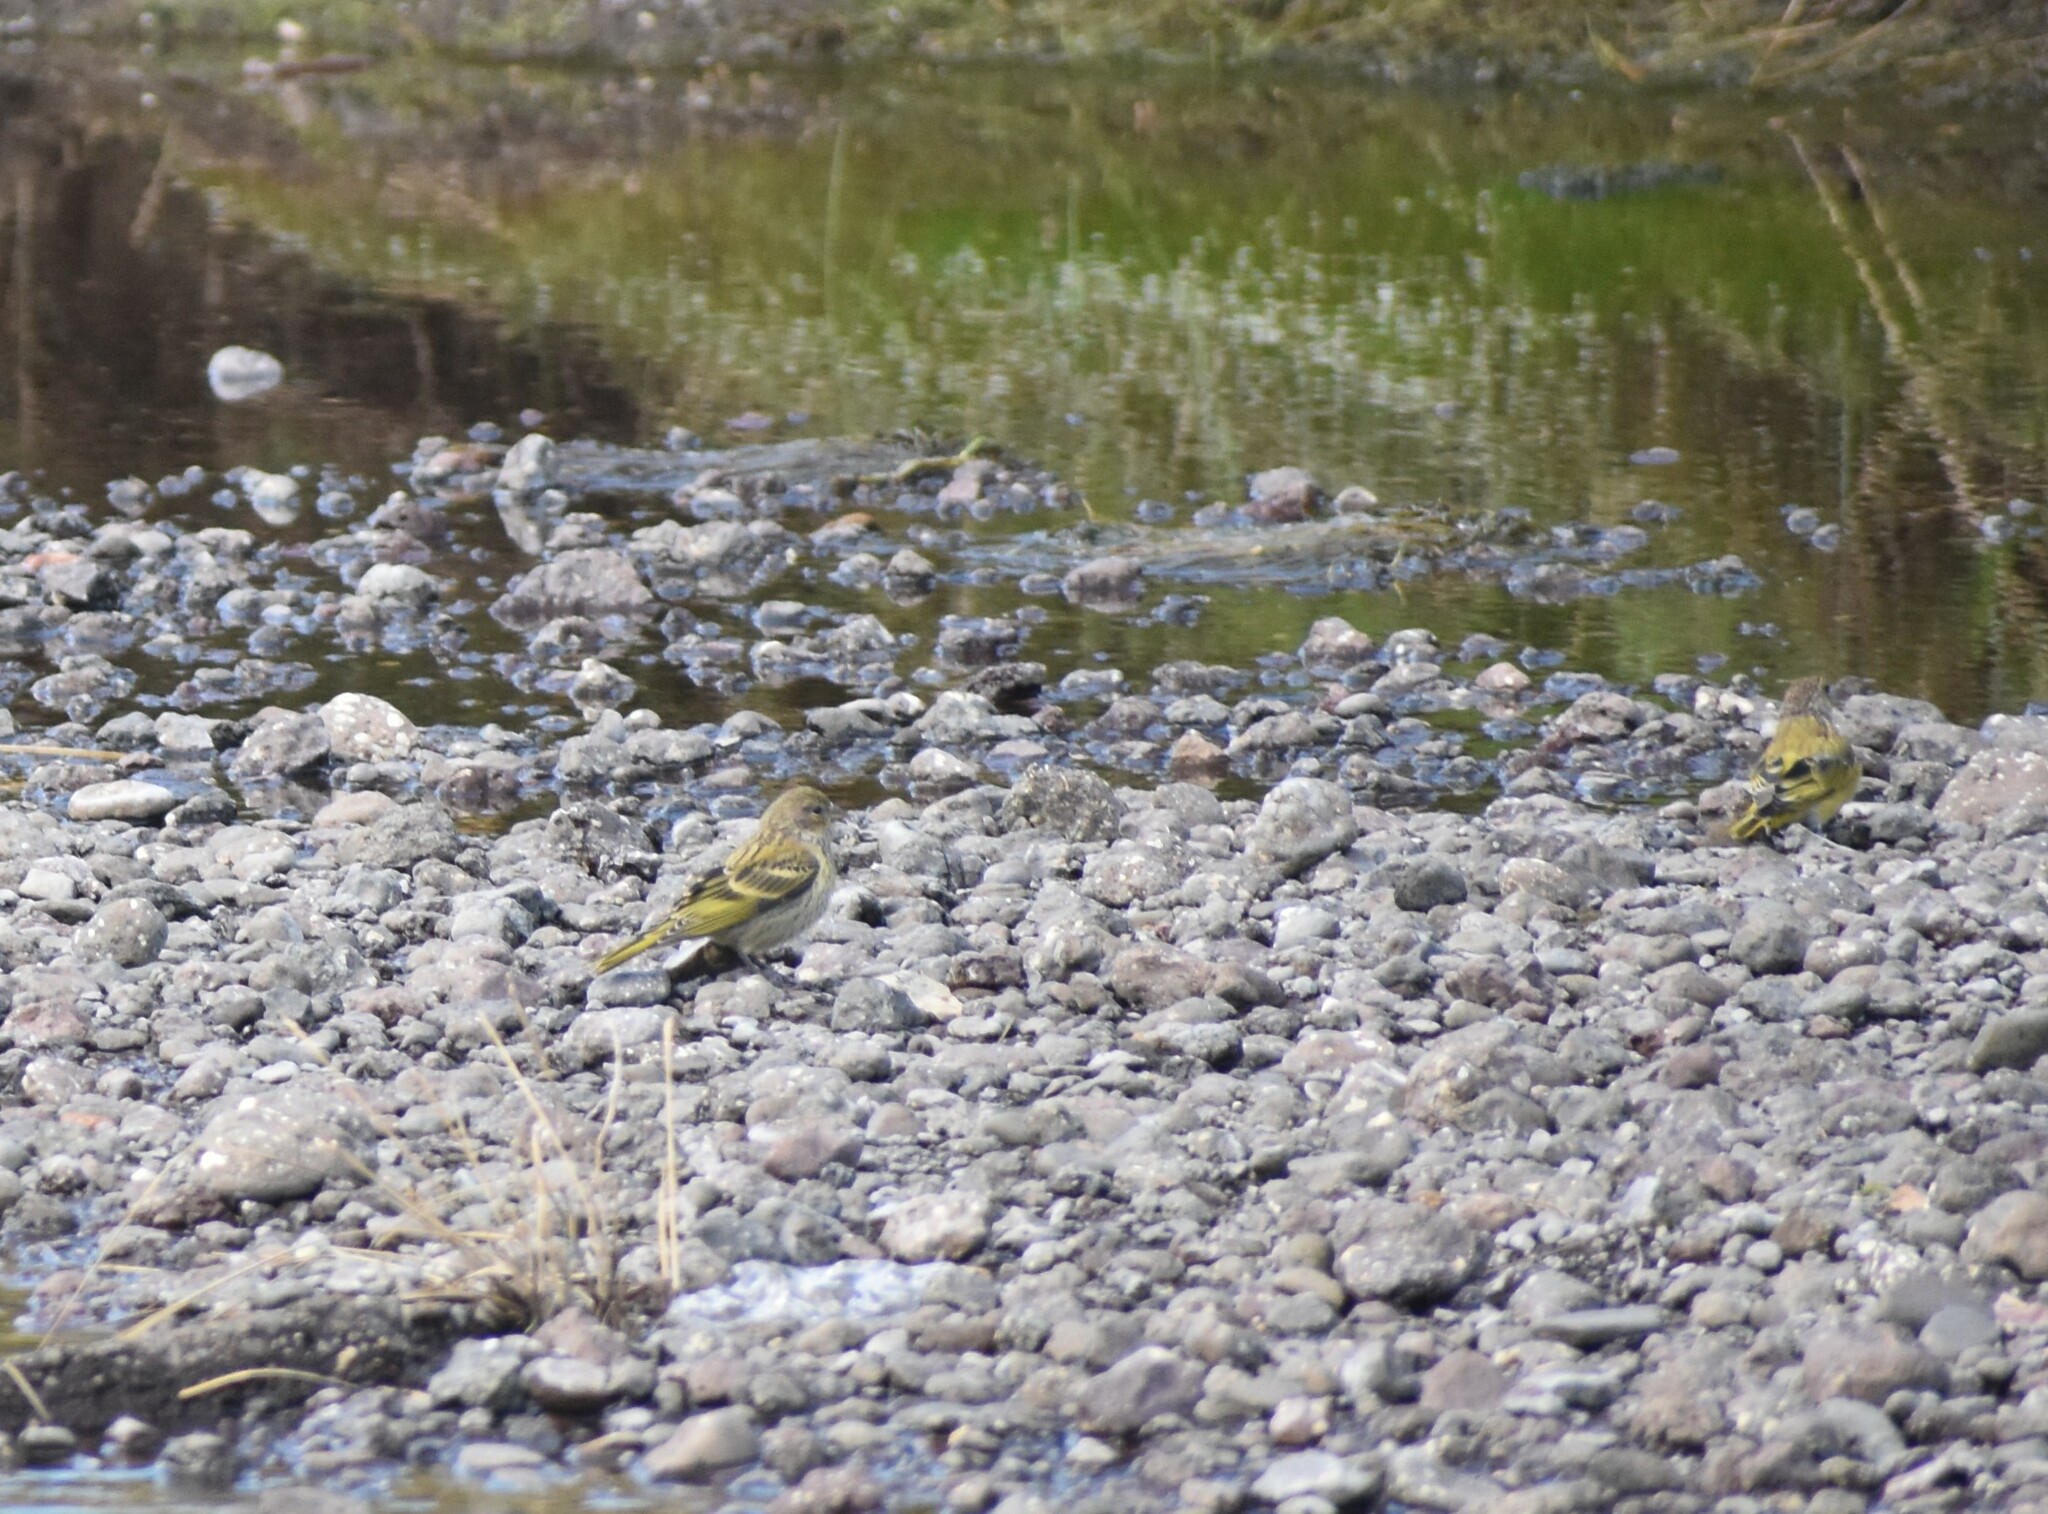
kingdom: Animalia
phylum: Chordata
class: Aves
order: Passeriformes
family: Fringillidae
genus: Serinus
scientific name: Serinus canicollis
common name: Cape canary
